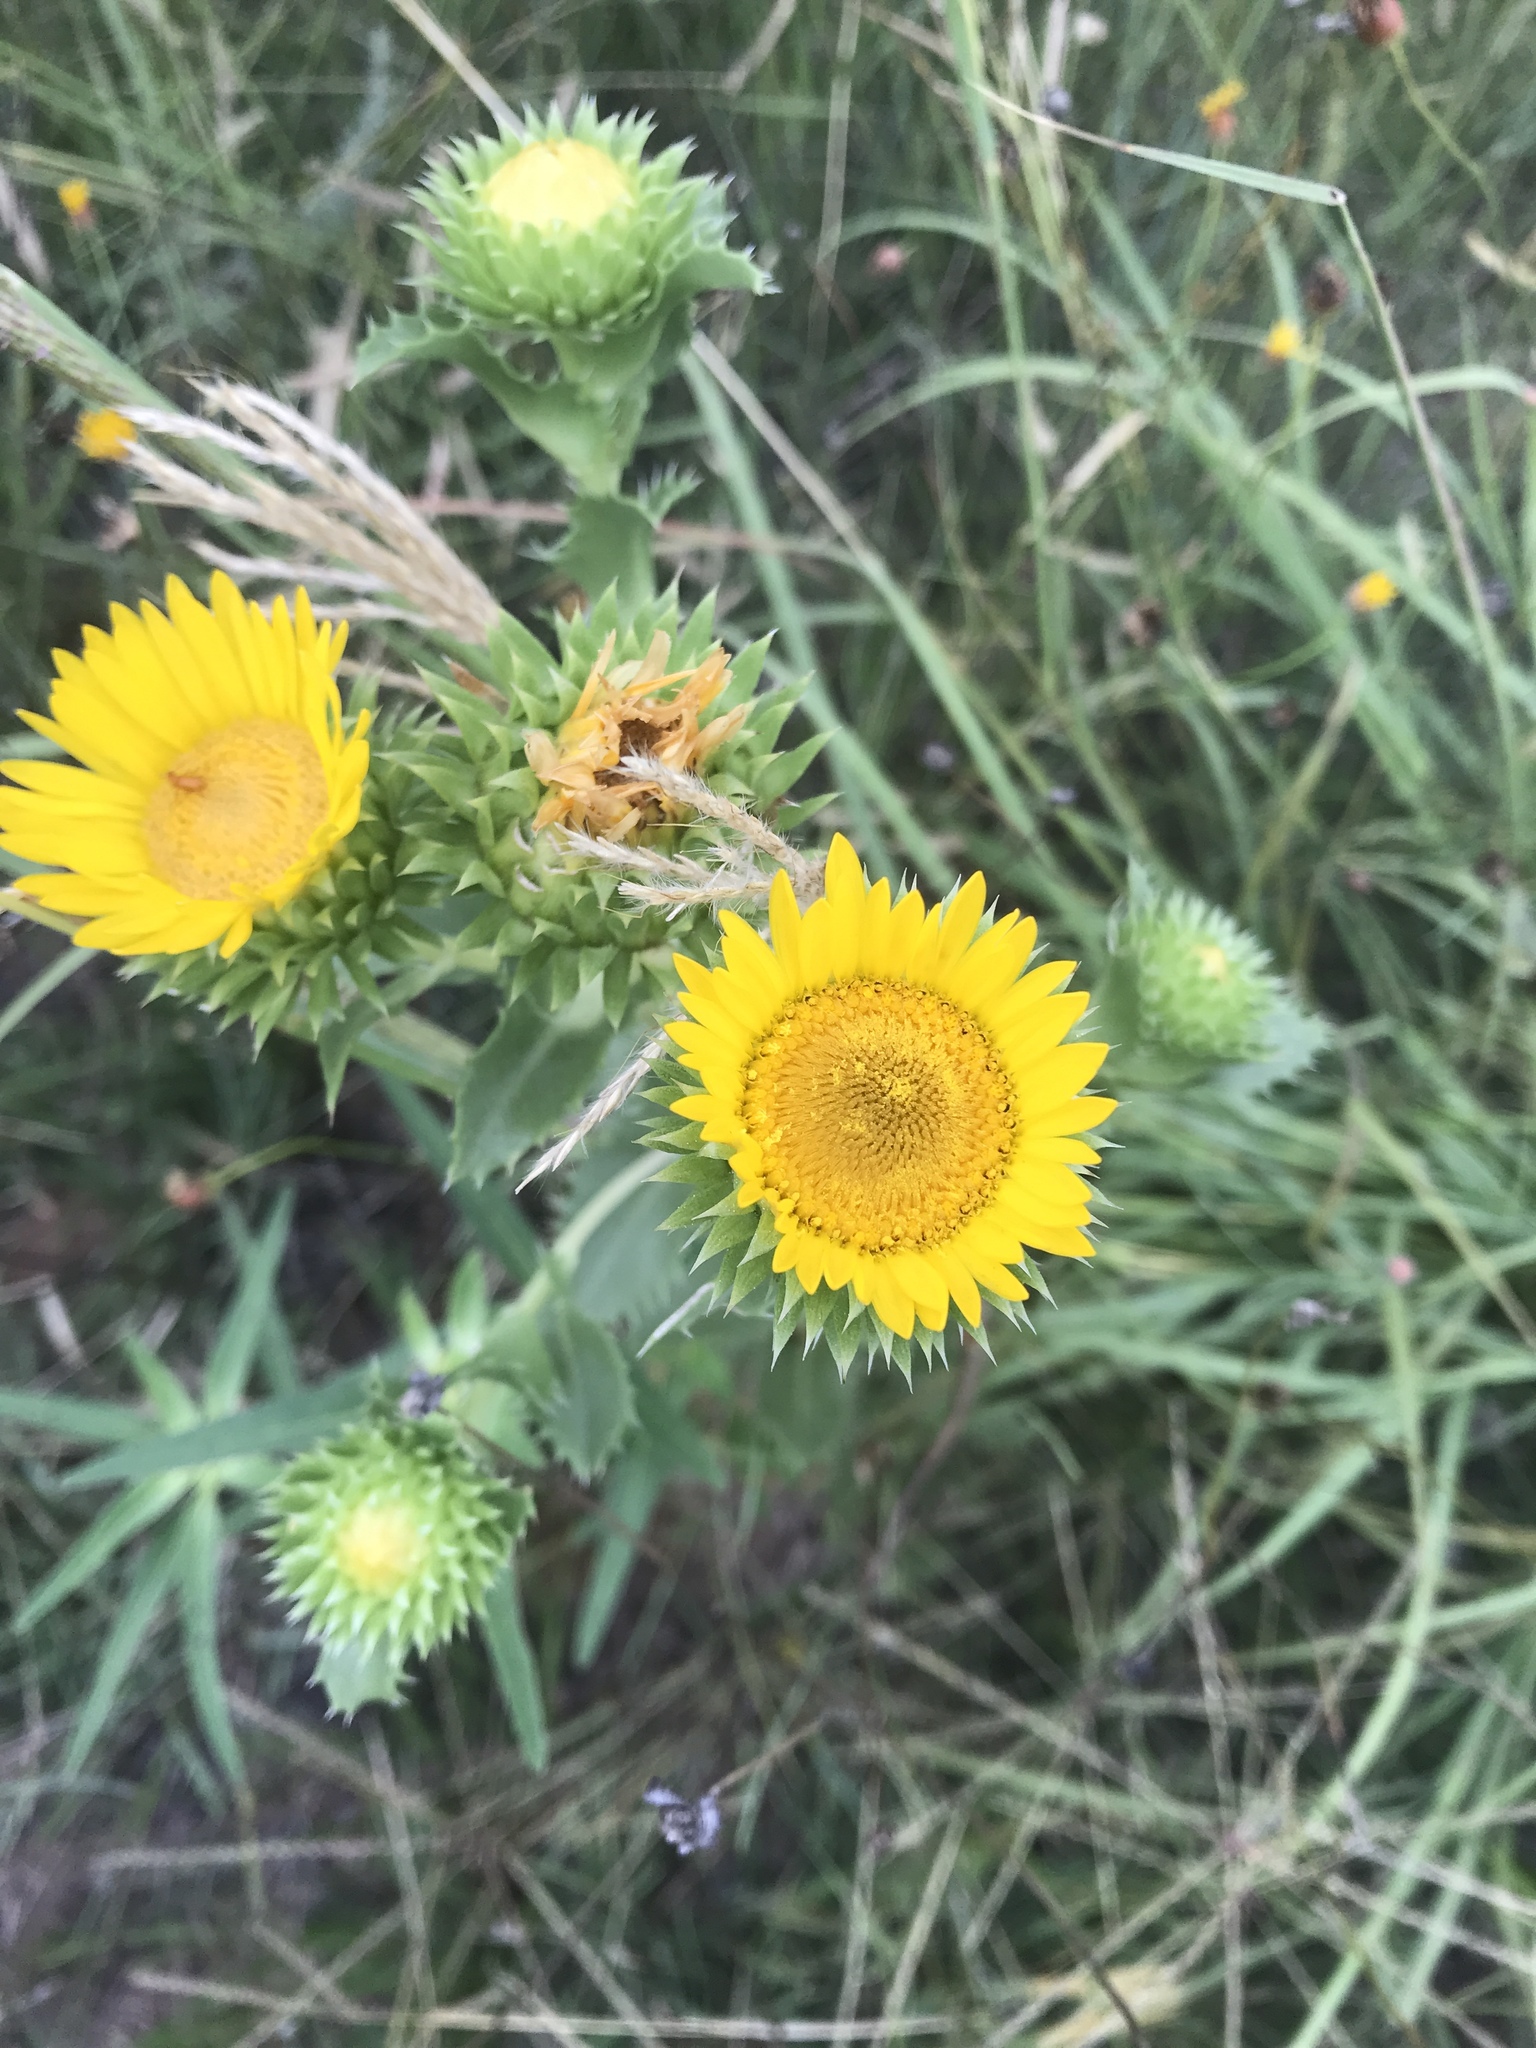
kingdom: Plantae
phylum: Tracheophyta
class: Magnoliopsida
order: Asterales
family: Asteraceae
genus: Grindelia
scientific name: Grindelia ciliata
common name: Goldenweed
